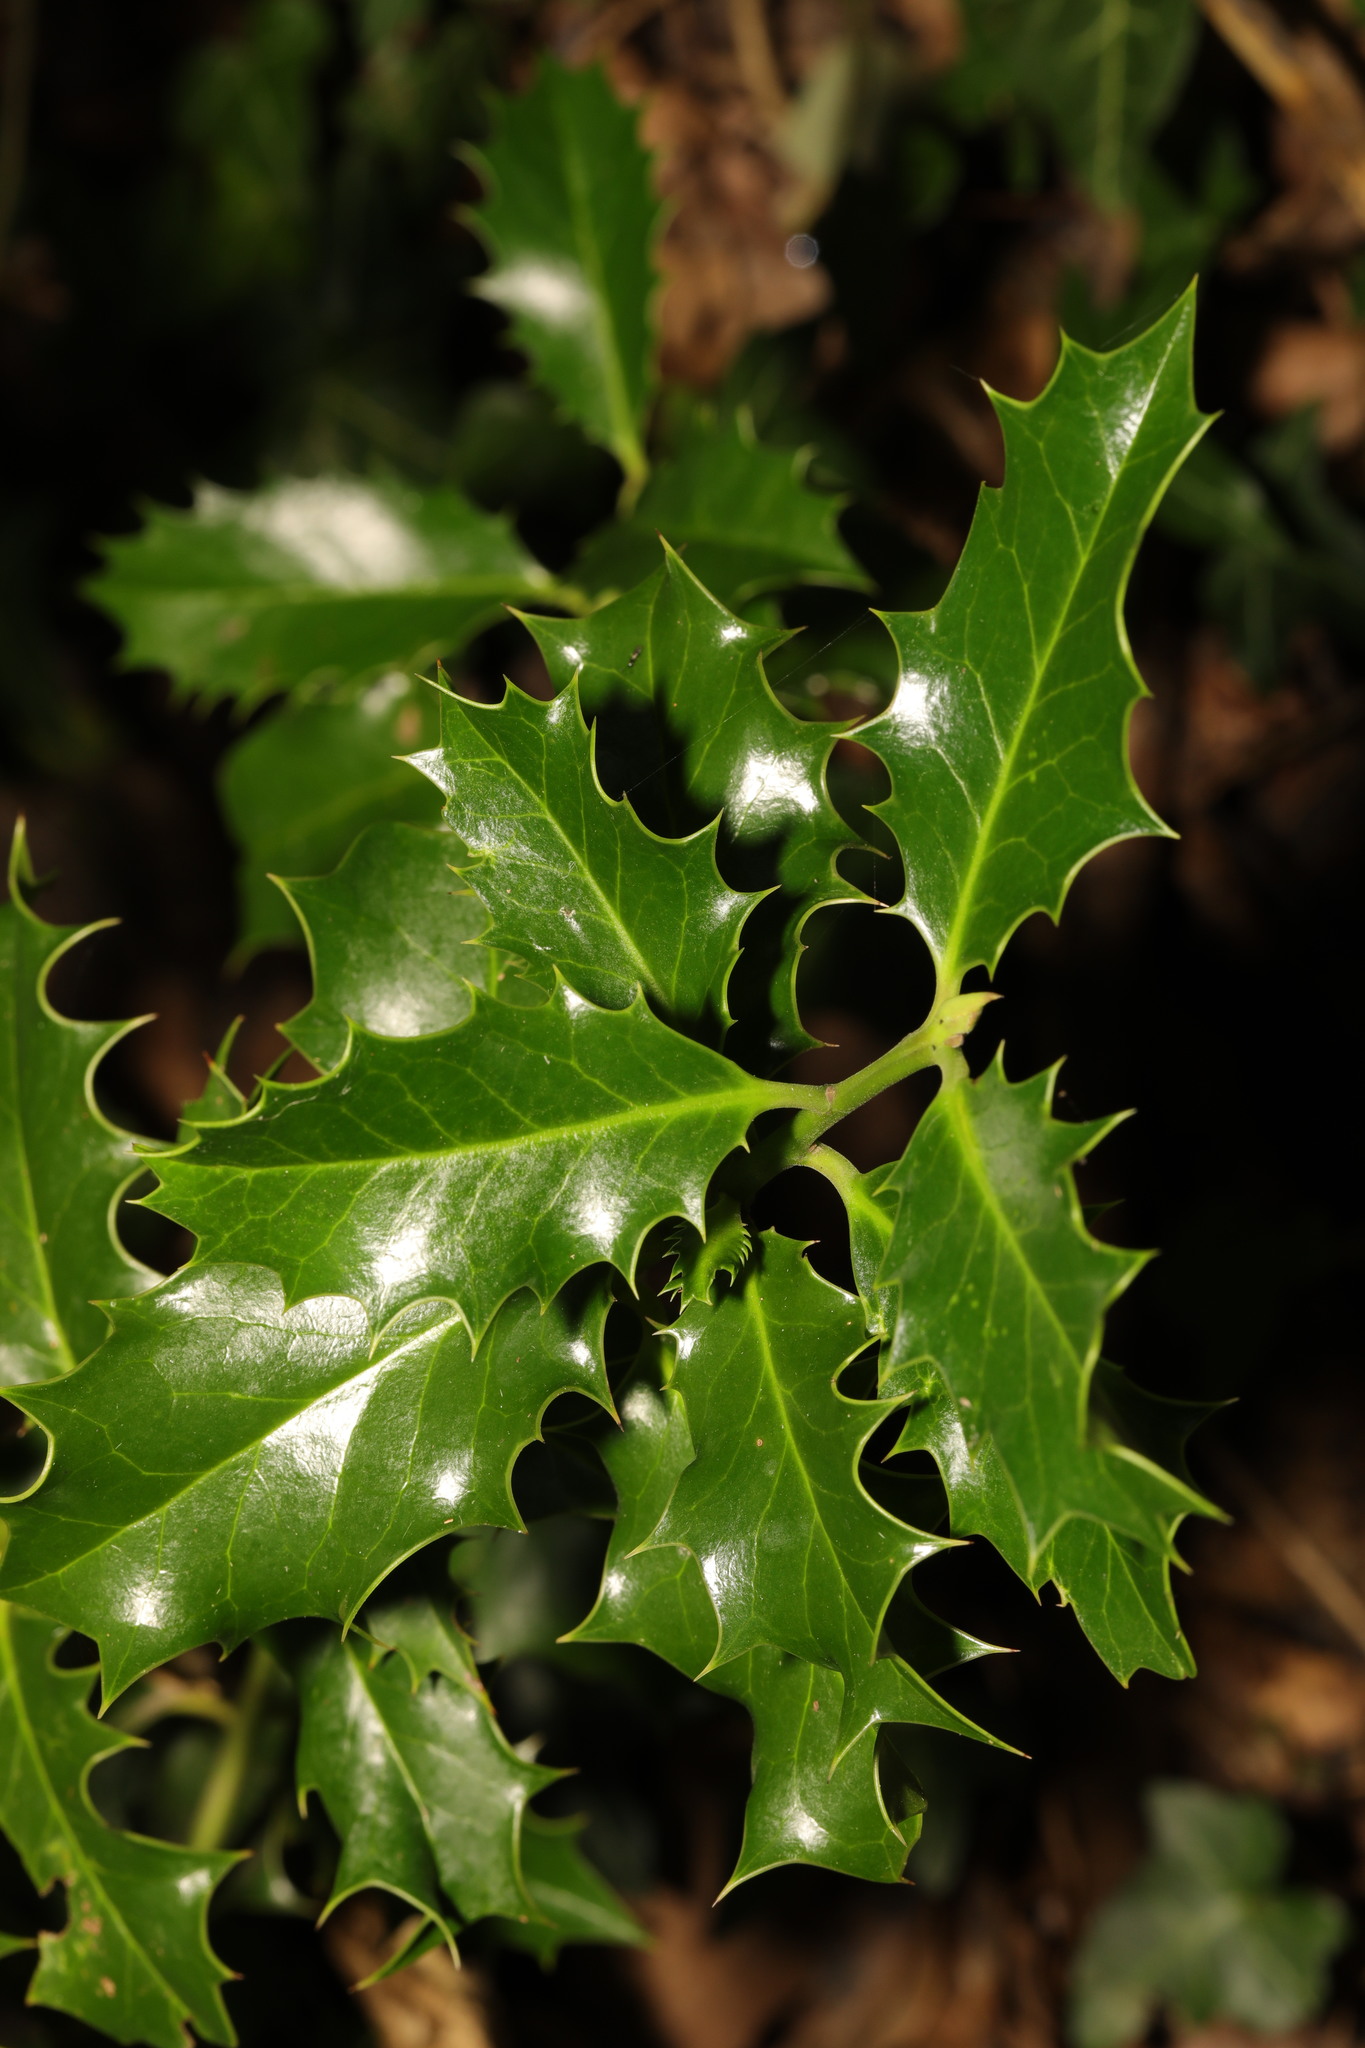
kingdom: Plantae
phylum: Tracheophyta
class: Magnoliopsida
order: Aquifoliales
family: Aquifoliaceae
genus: Ilex
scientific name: Ilex aquifolium
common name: English holly
